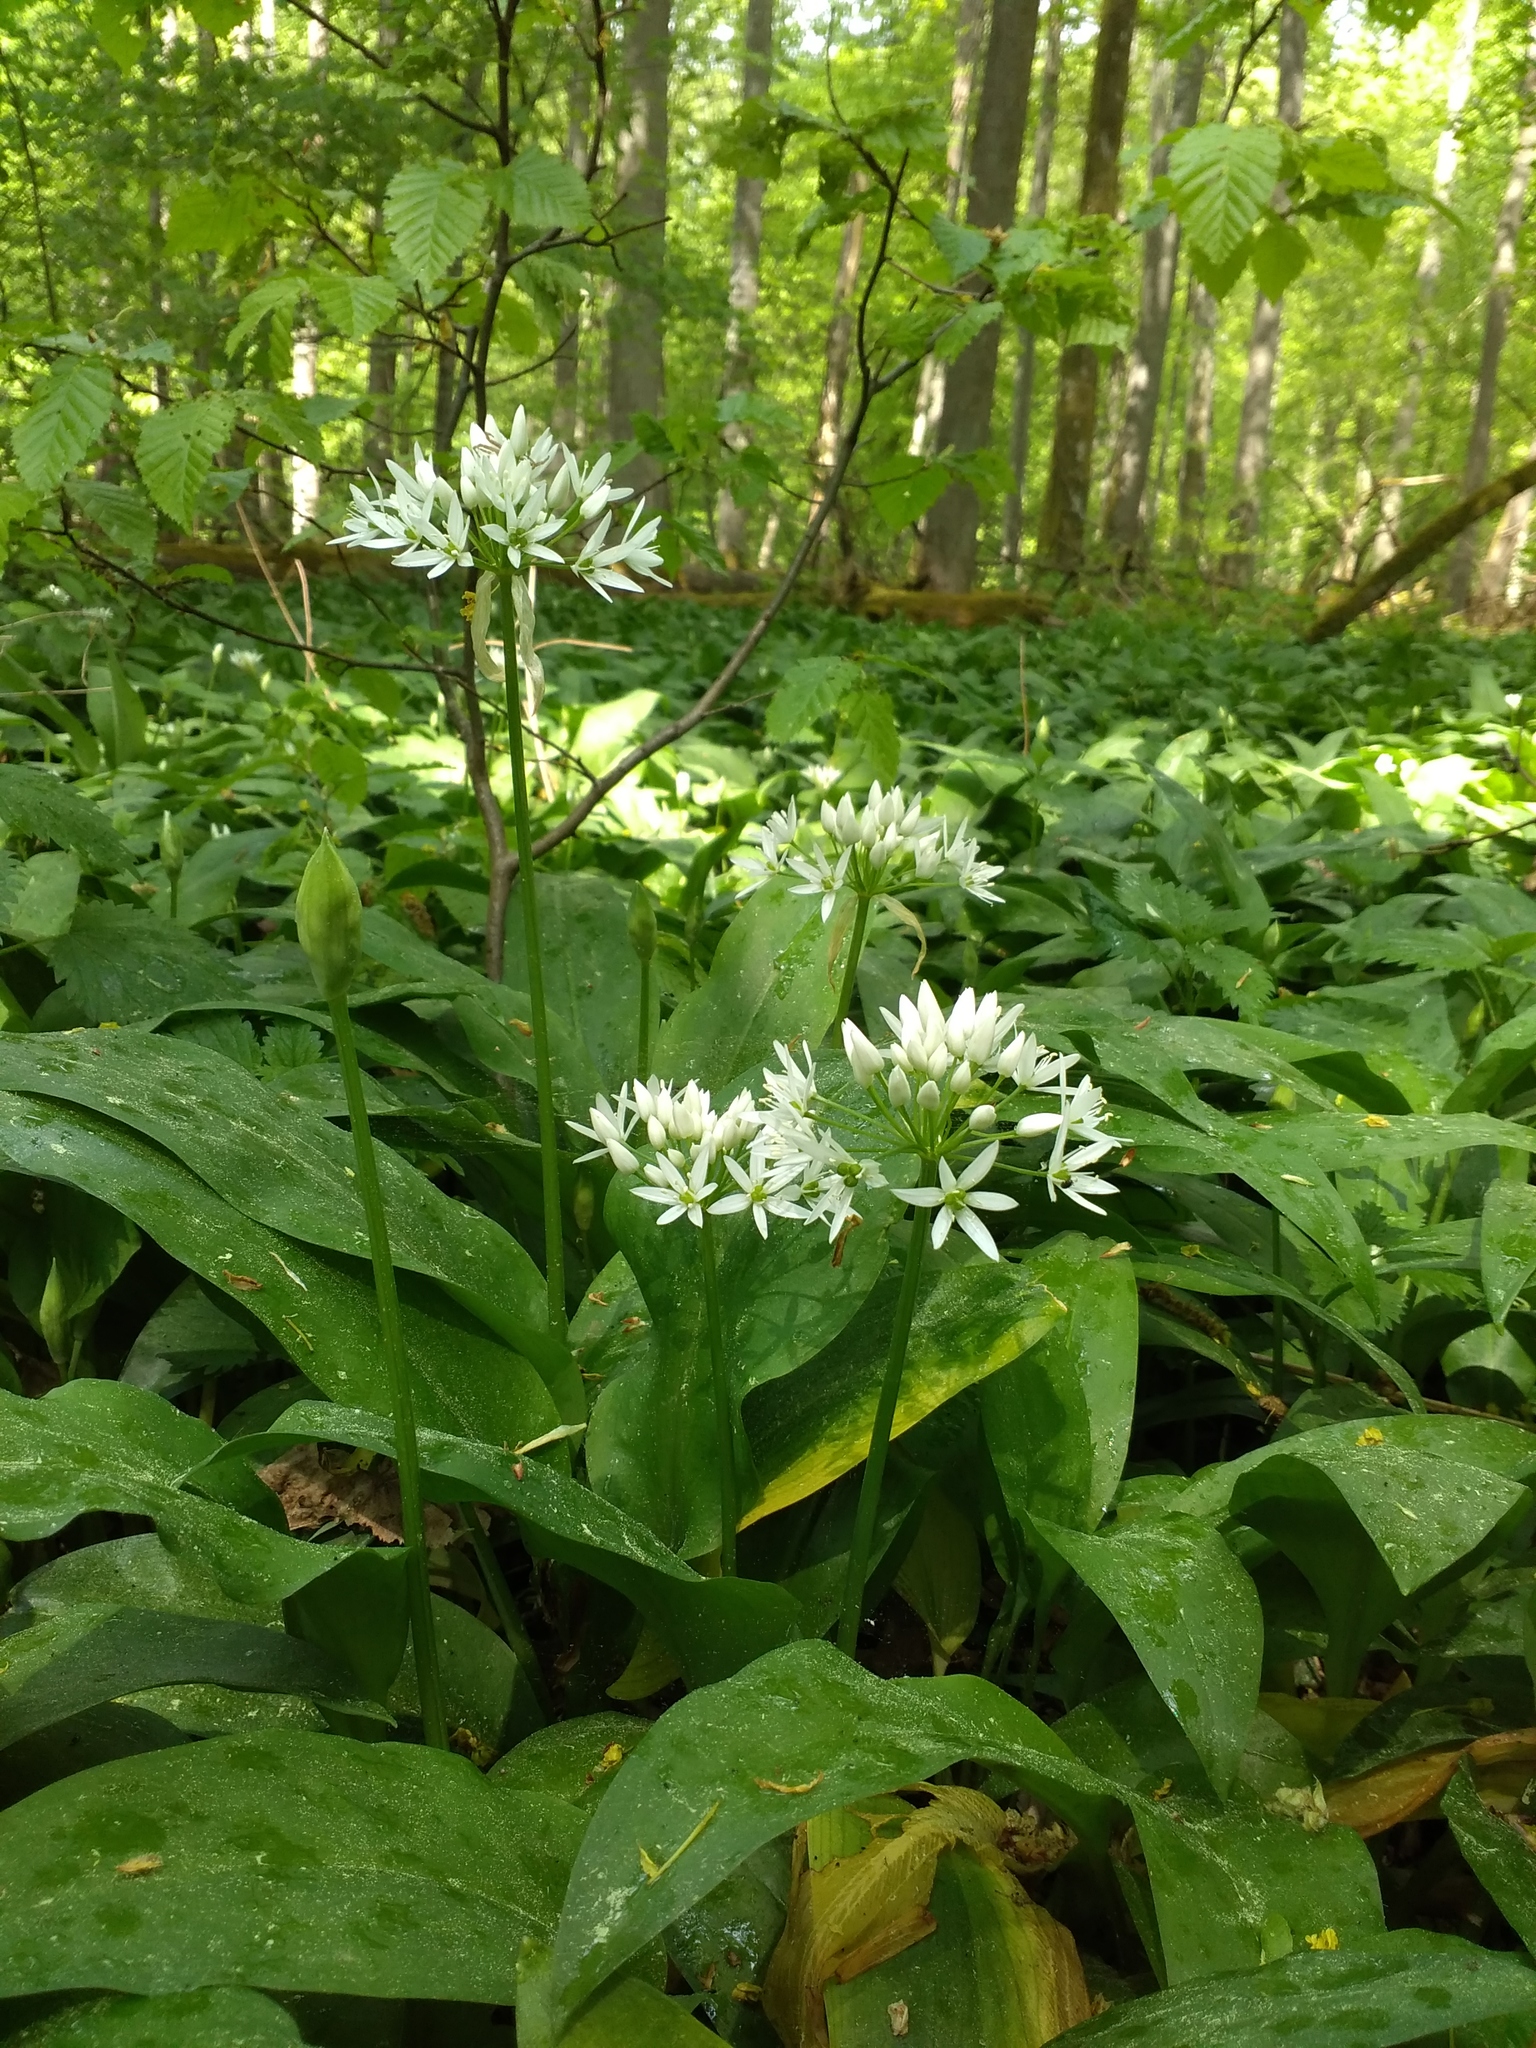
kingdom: Plantae
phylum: Tracheophyta
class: Liliopsida
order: Asparagales
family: Amaryllidaceae
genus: Allium
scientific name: Allium ursinum
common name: Ramsons
